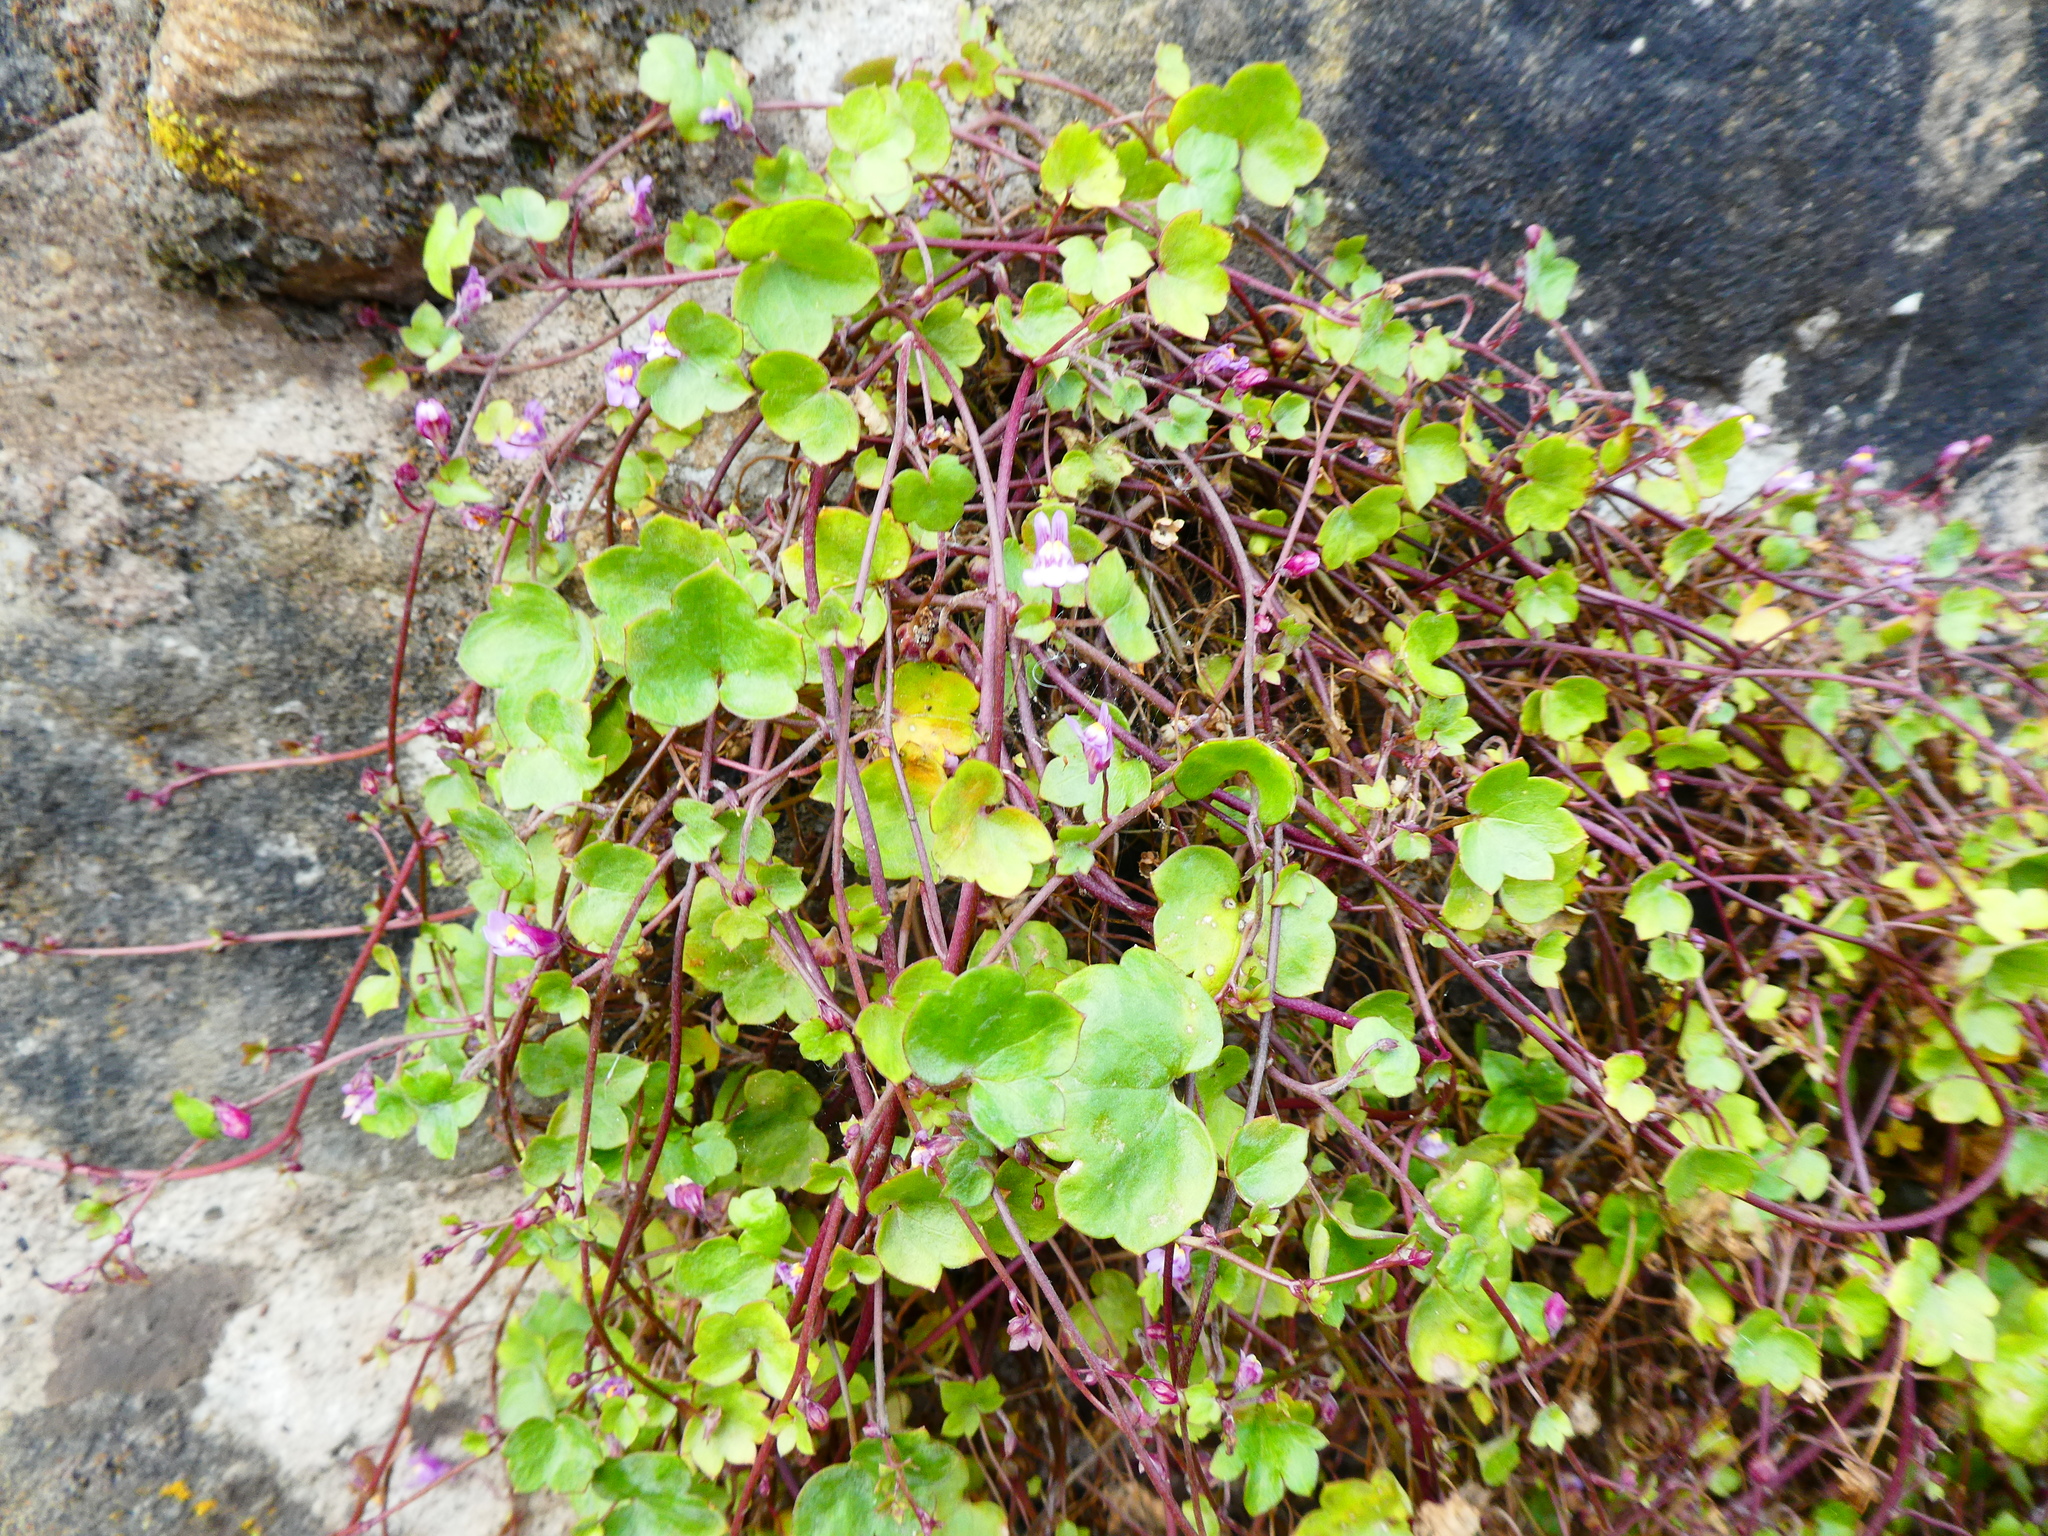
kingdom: Plantae
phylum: Tracheophyta
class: Magnoliopsida
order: Lamiales
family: Plantaginaceae
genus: Cymbalaria
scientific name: Cymbalaria muralis
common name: Ivy-leaved toadflax
